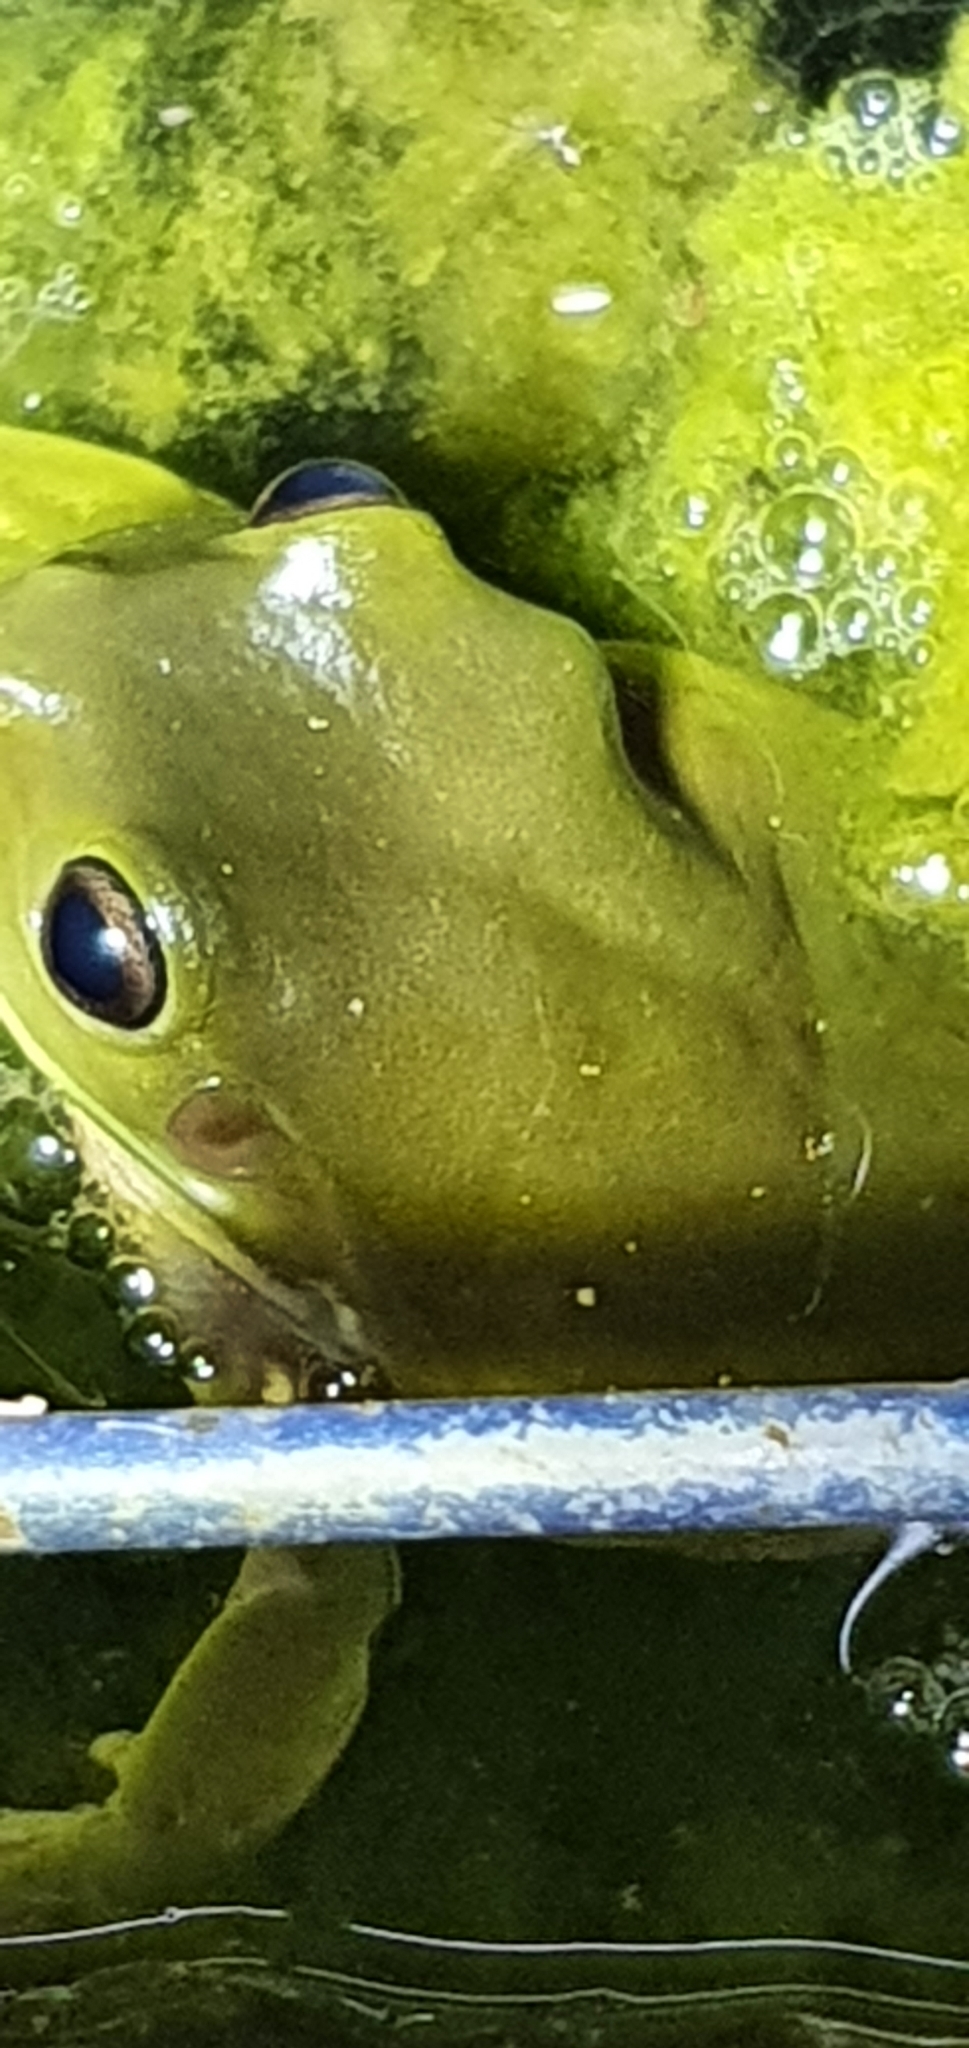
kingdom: Animalia
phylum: Chordata
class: Amphibia
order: Anura
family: Pelodryadidae
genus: Ranoidea
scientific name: Ranoidea caerulea
